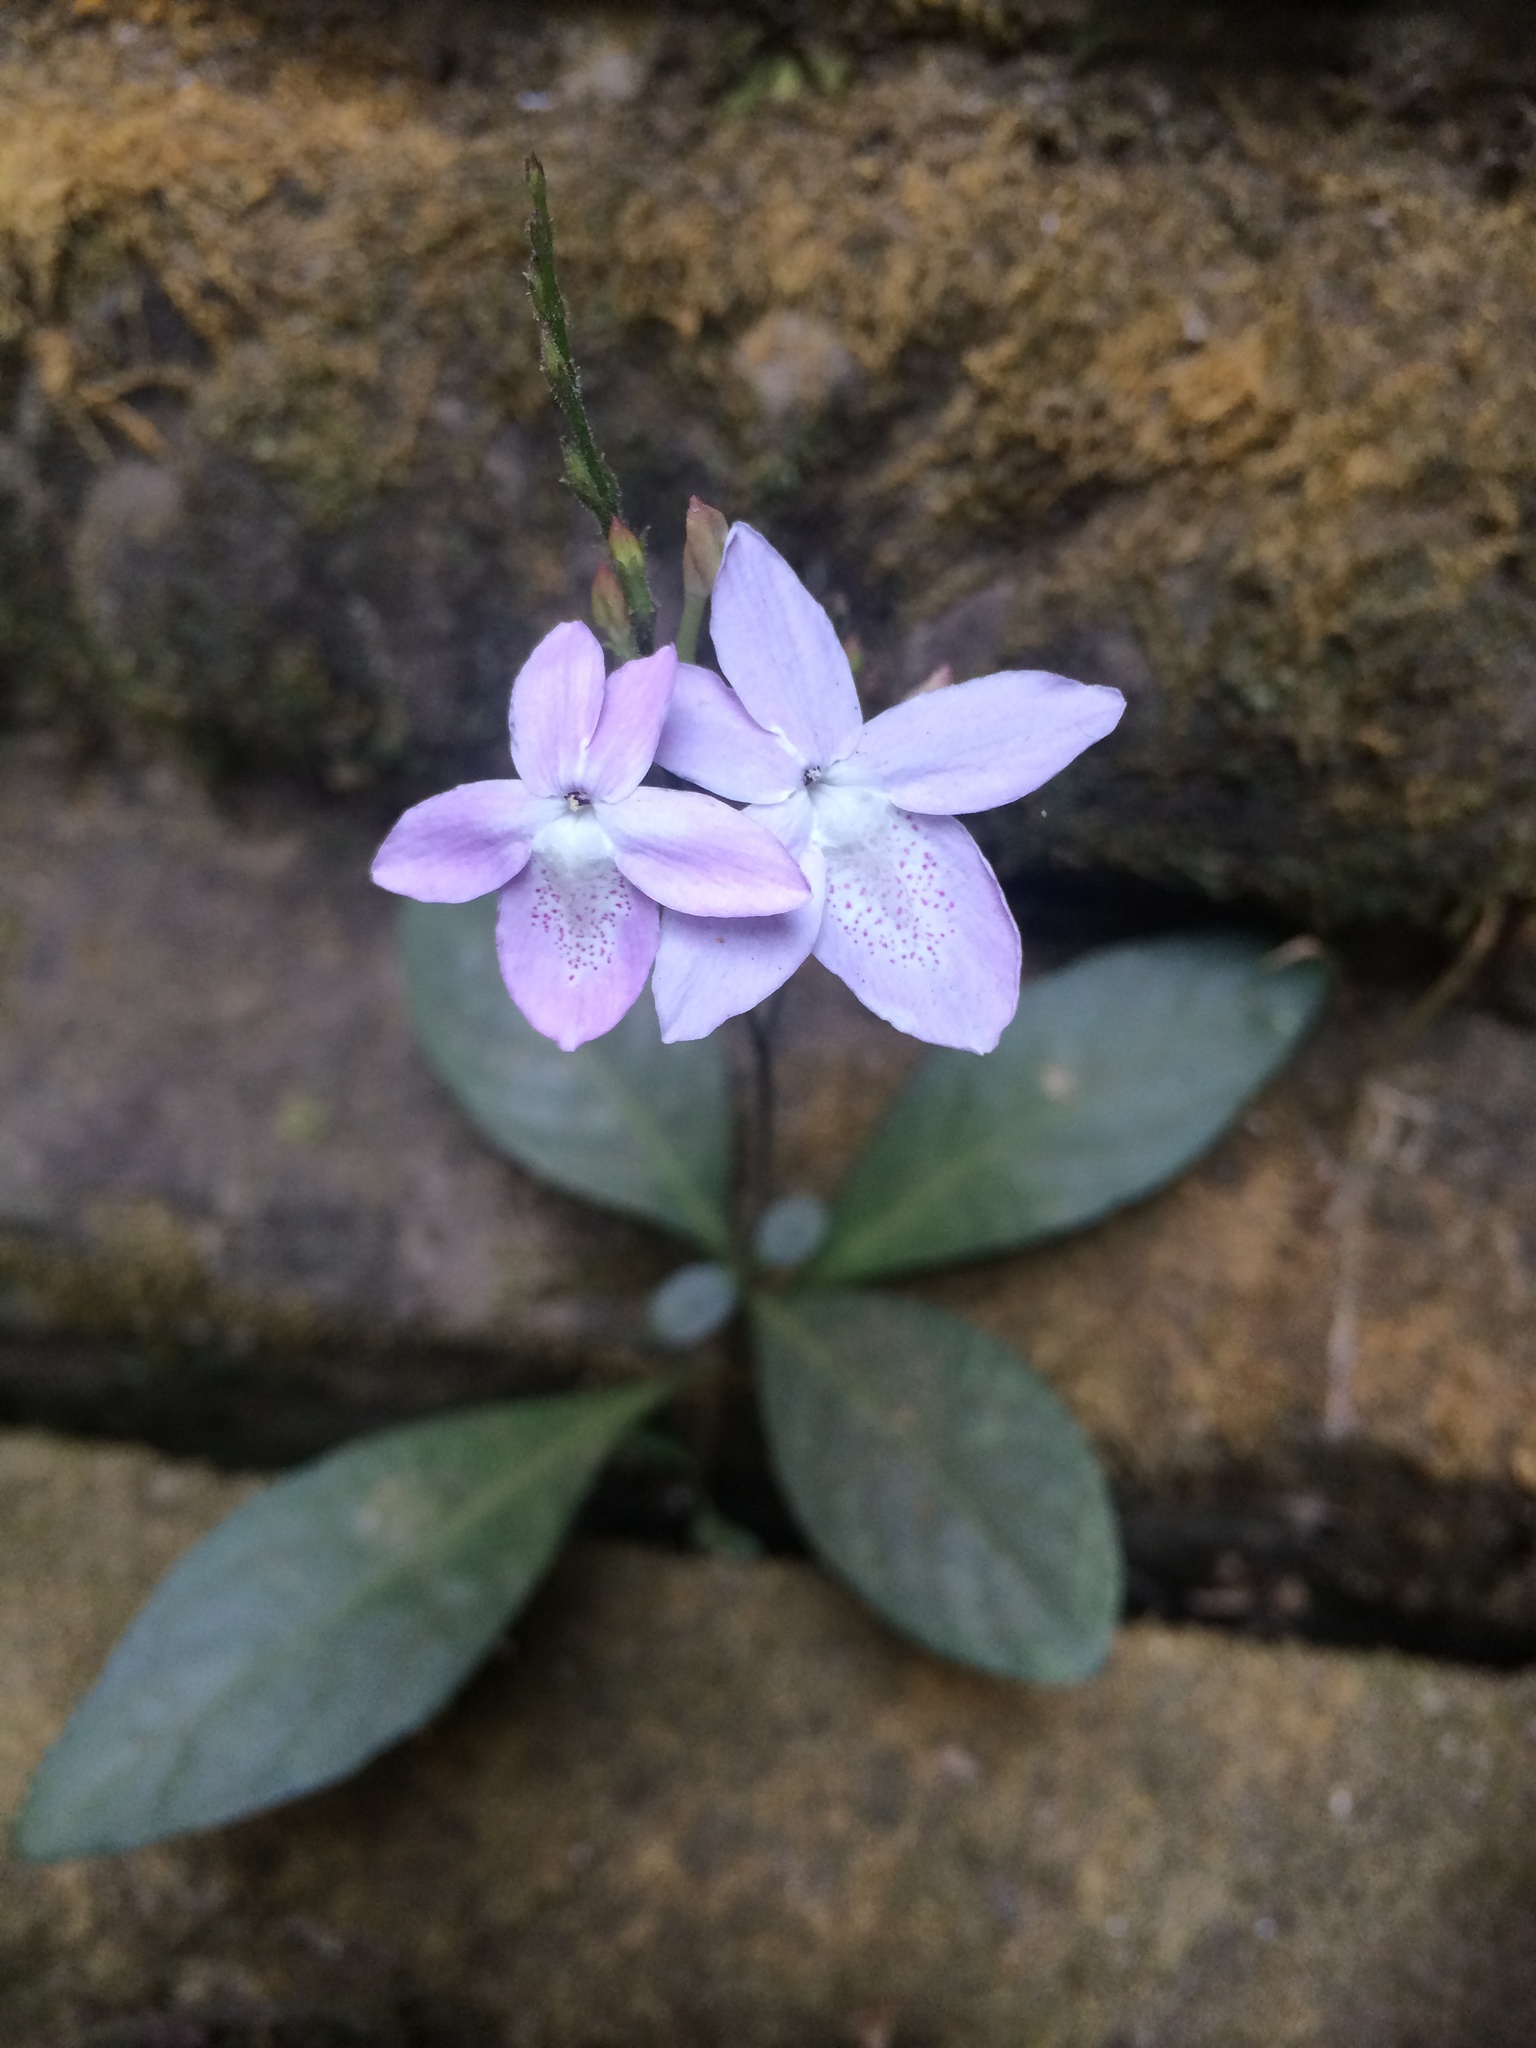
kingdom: Plantae
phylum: Tracheophyta
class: Magnoliopsida
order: Lamiales
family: Acanthaceae
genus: Pseuderanthemum
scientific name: Pseuderanthemum latifolium
